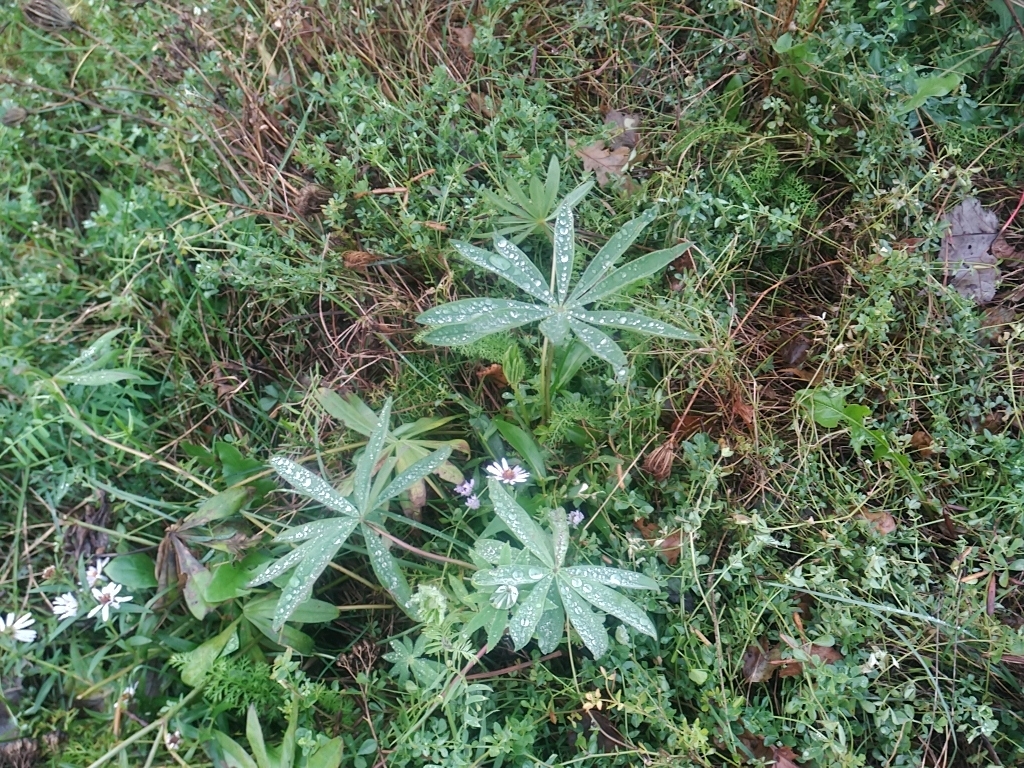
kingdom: Plantae
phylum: Tracheophyta
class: Magnoliopsida
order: Fabales
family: Fabaceae
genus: Lupinus
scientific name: Lupinus polyphyllus
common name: Garden lupin
